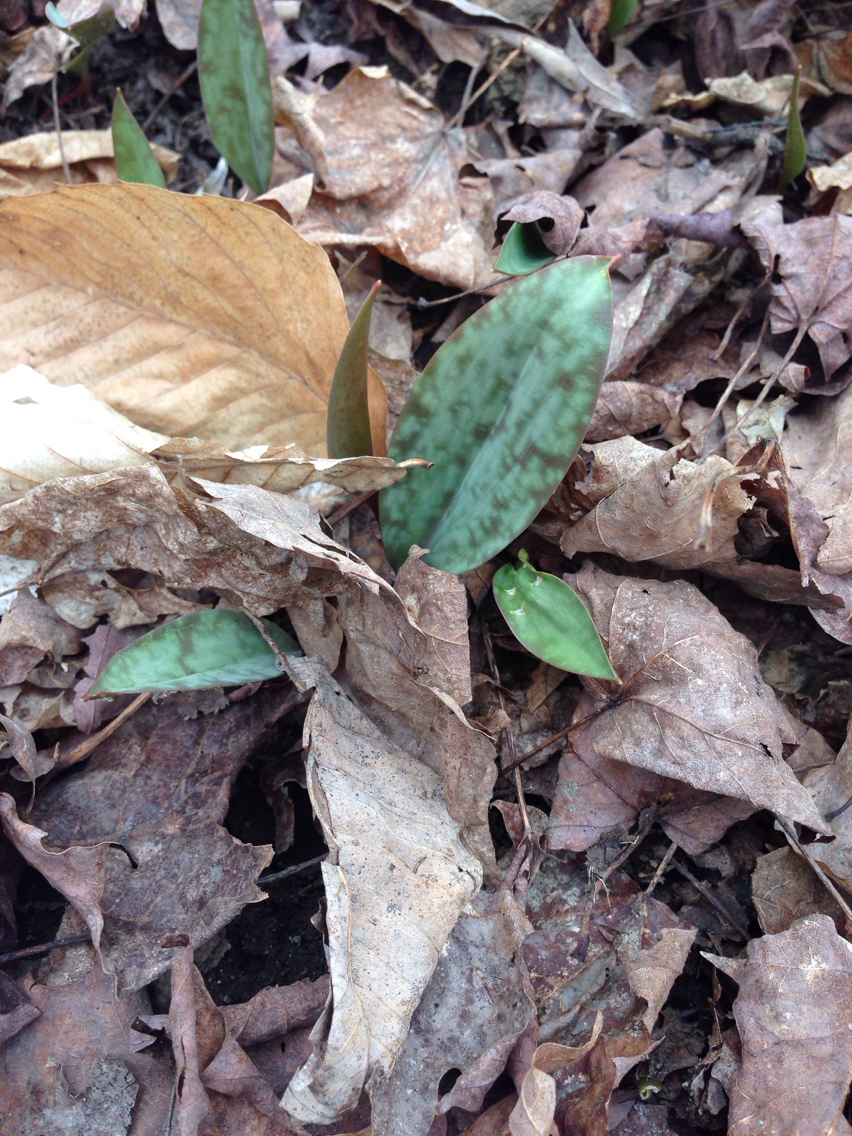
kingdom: Plantae
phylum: Tracheophyta
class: Liliopsida
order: Liliales
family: Liliaceae
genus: Erythronium
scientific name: Erythronium americanum
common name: Yellow adder's-tongue
